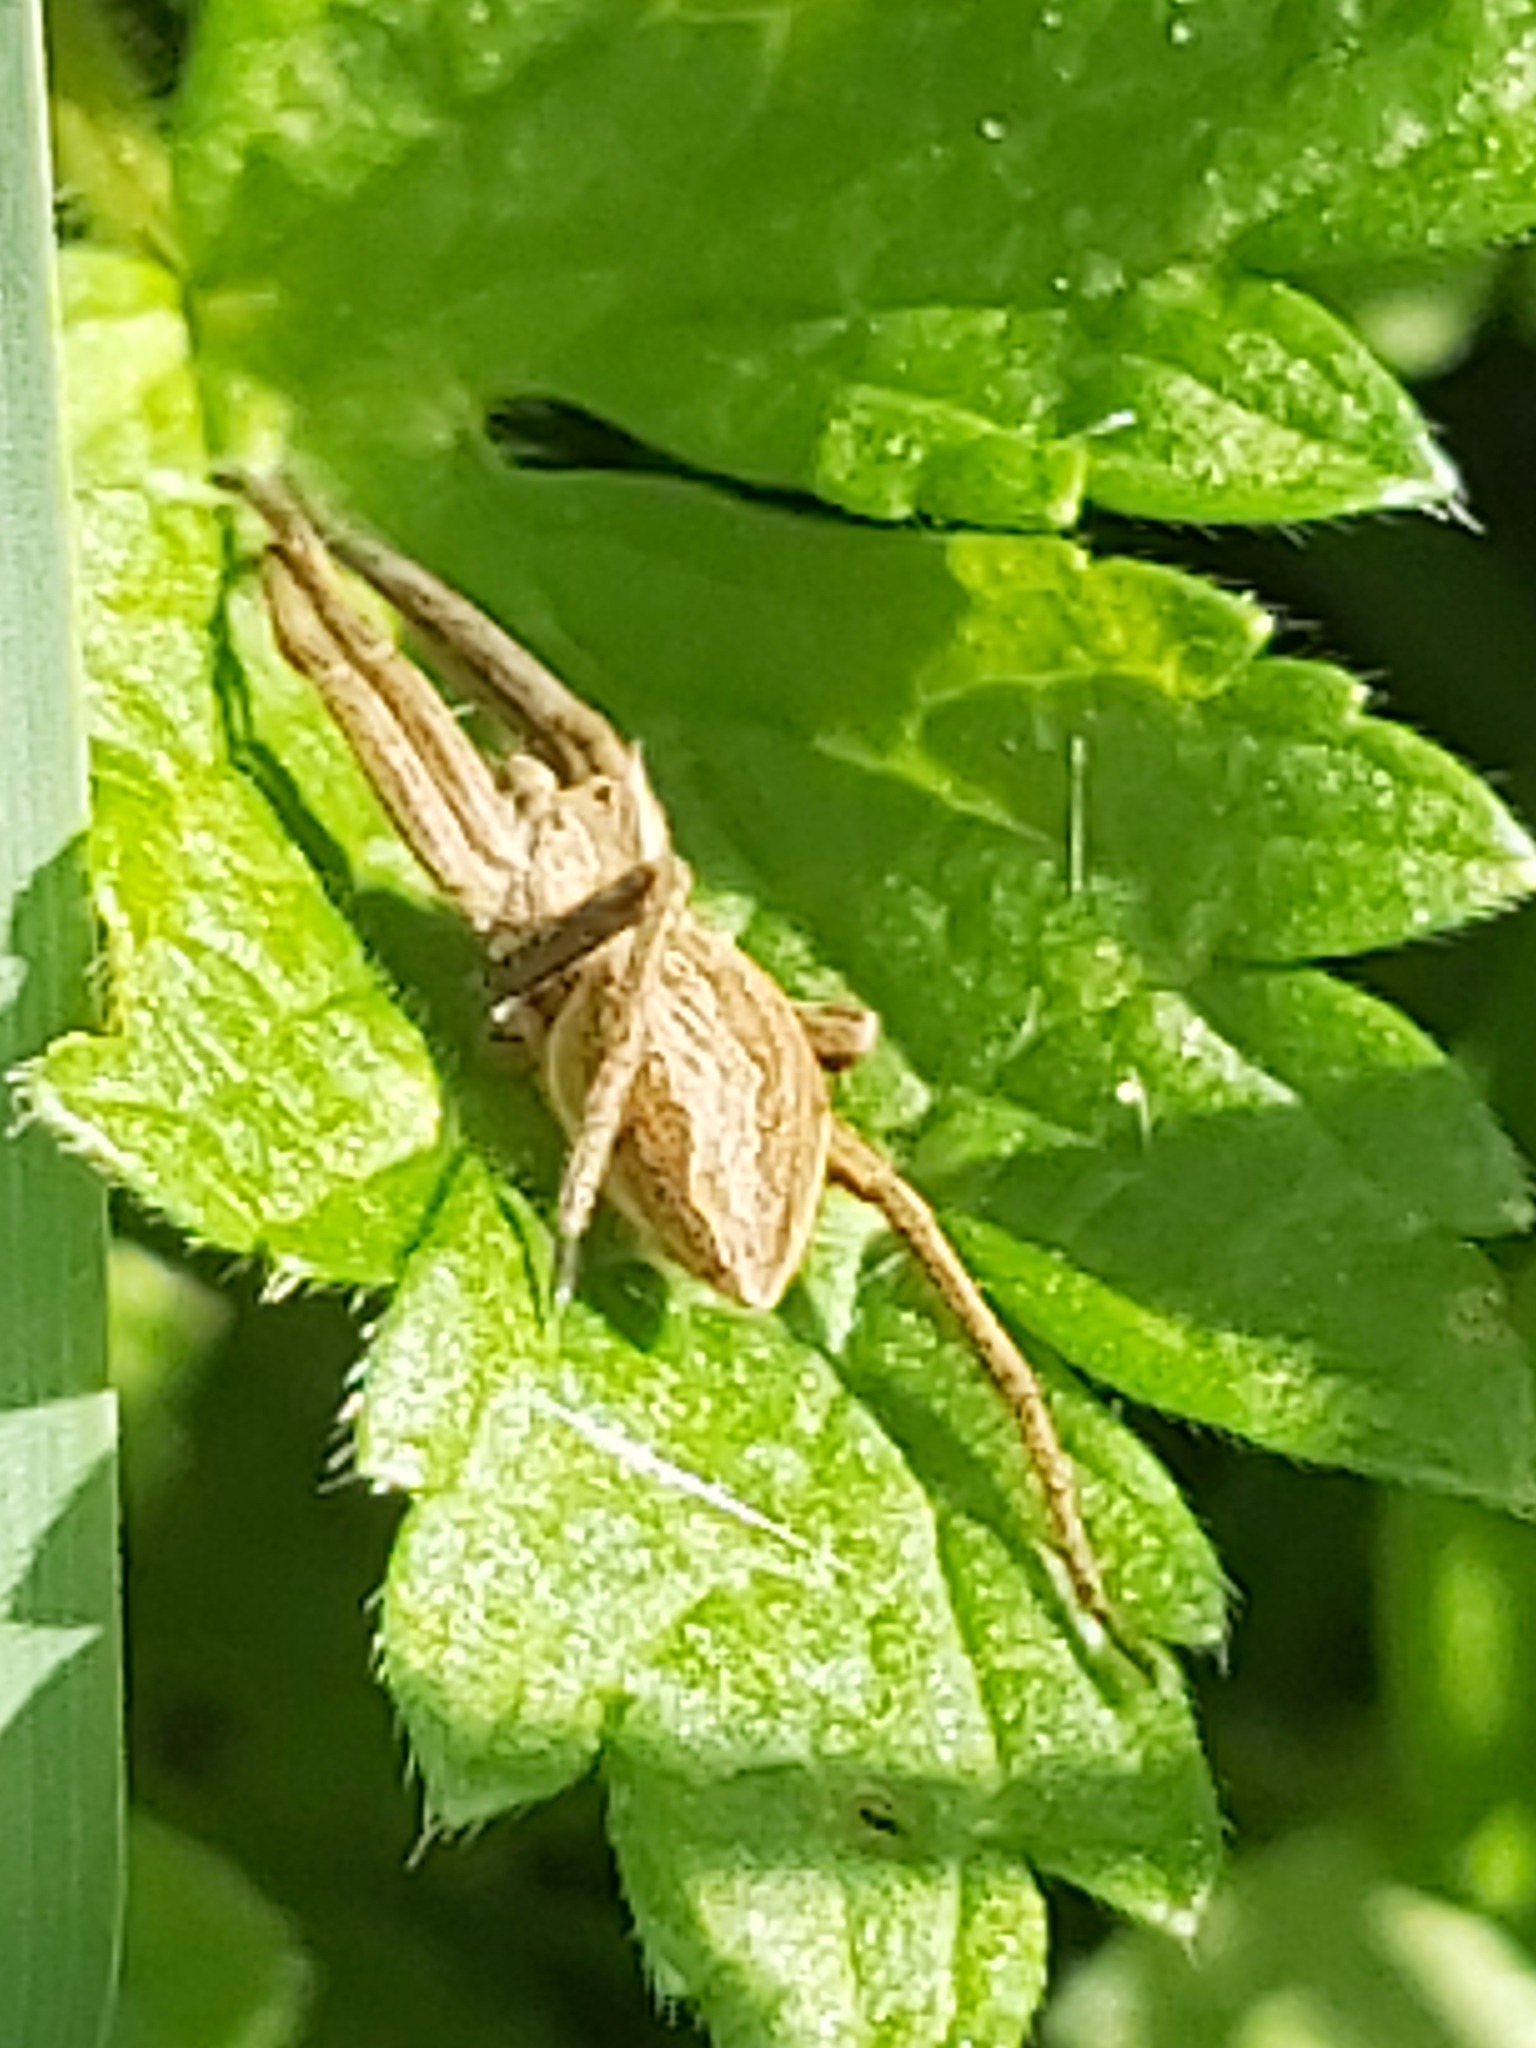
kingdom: Animalia
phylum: Arthropoda
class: Arachnida
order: Araneae
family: Pisauridae
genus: Pisaura
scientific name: Pisaura mirabilis
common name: Tent spider
